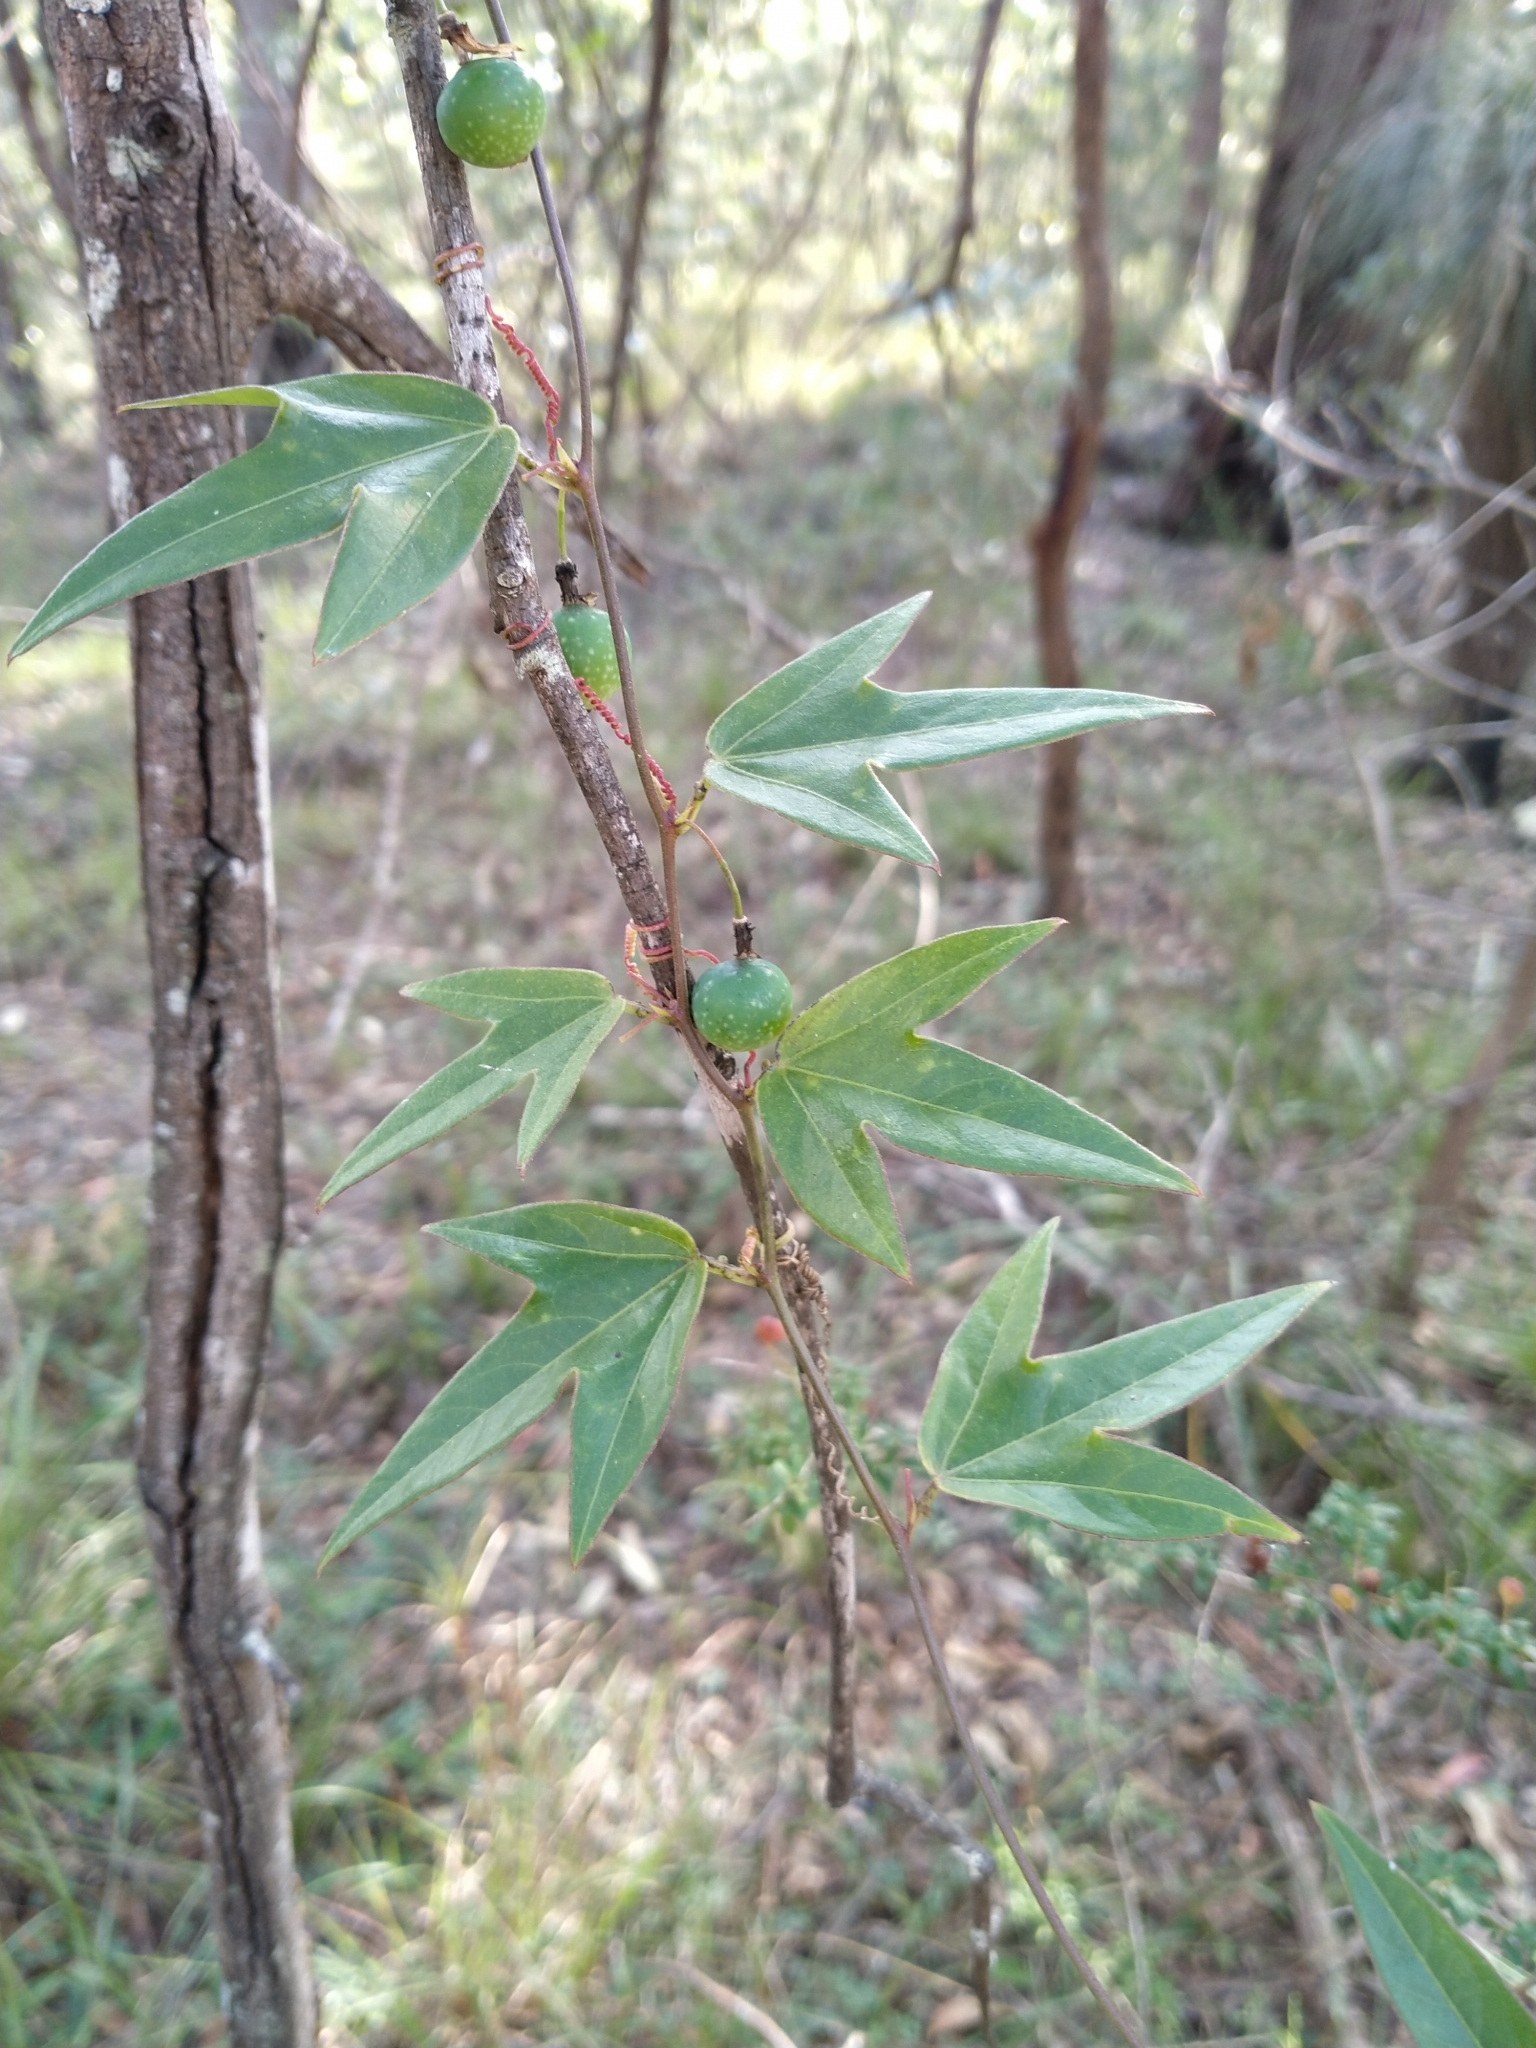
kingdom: Plantae
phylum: Tracheophyta
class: Magnoliopsida
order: Malpighiales
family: Passifloraceae
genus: Passiflora
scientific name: Passiflora suberosa
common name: Wild passionfruit
